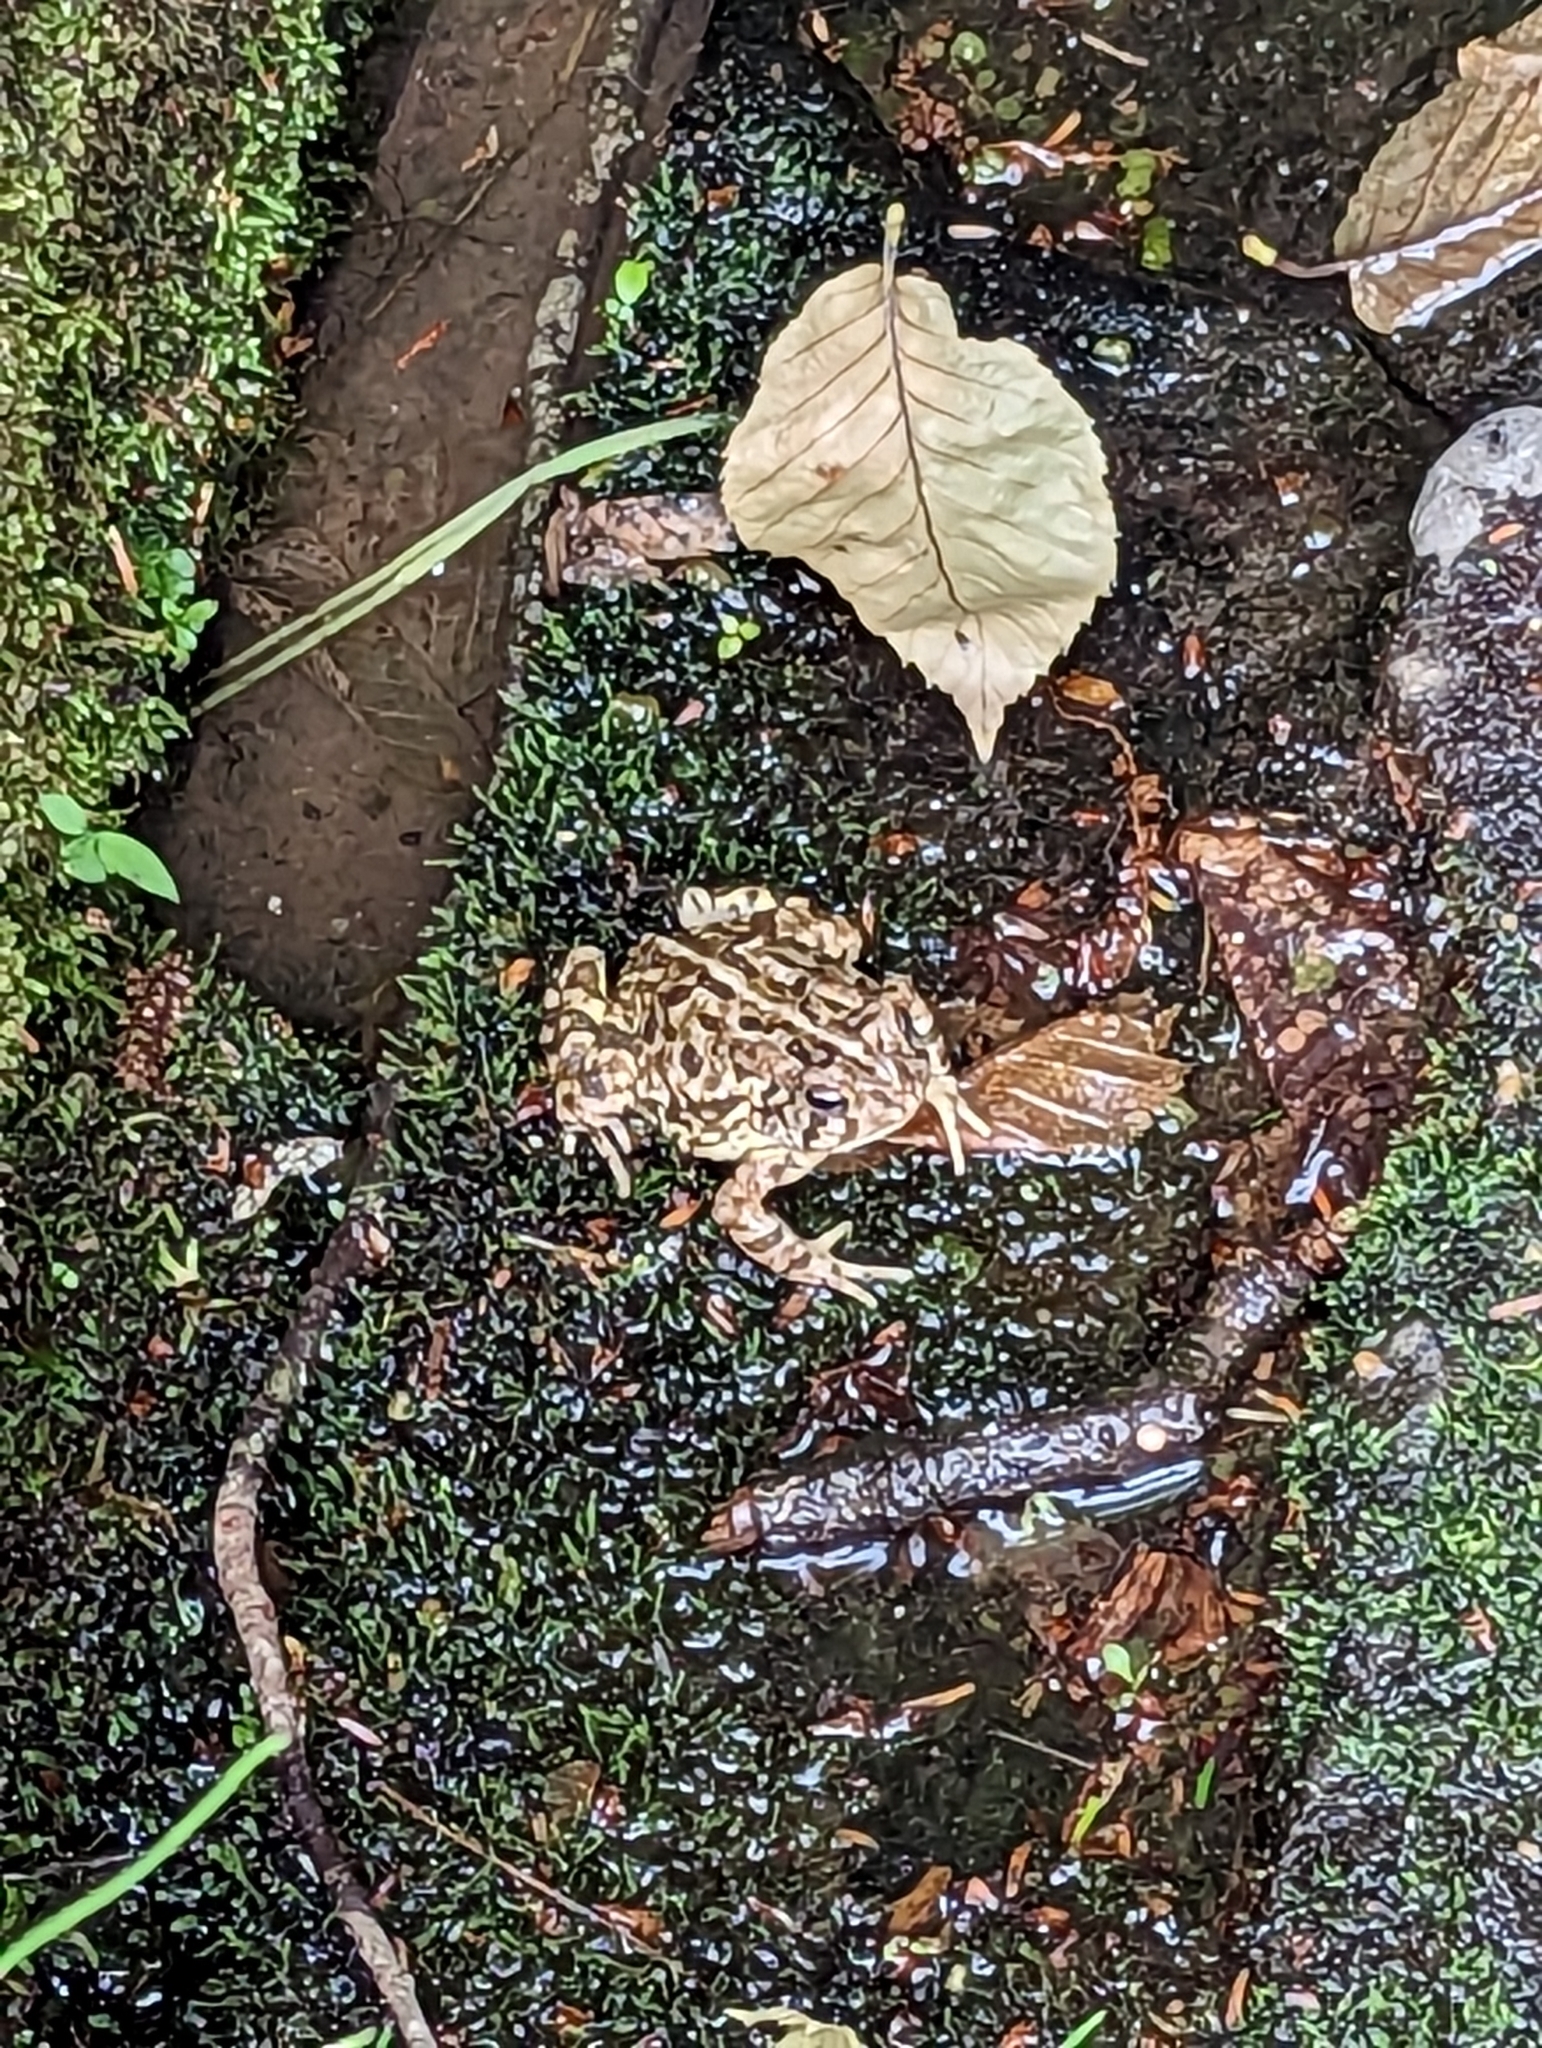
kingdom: Animalia
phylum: Chordata
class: Amphibia
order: Anura
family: Bufonidae
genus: Anaxyrus
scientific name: Anaxyrus fowleri
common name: Fowler's toad
